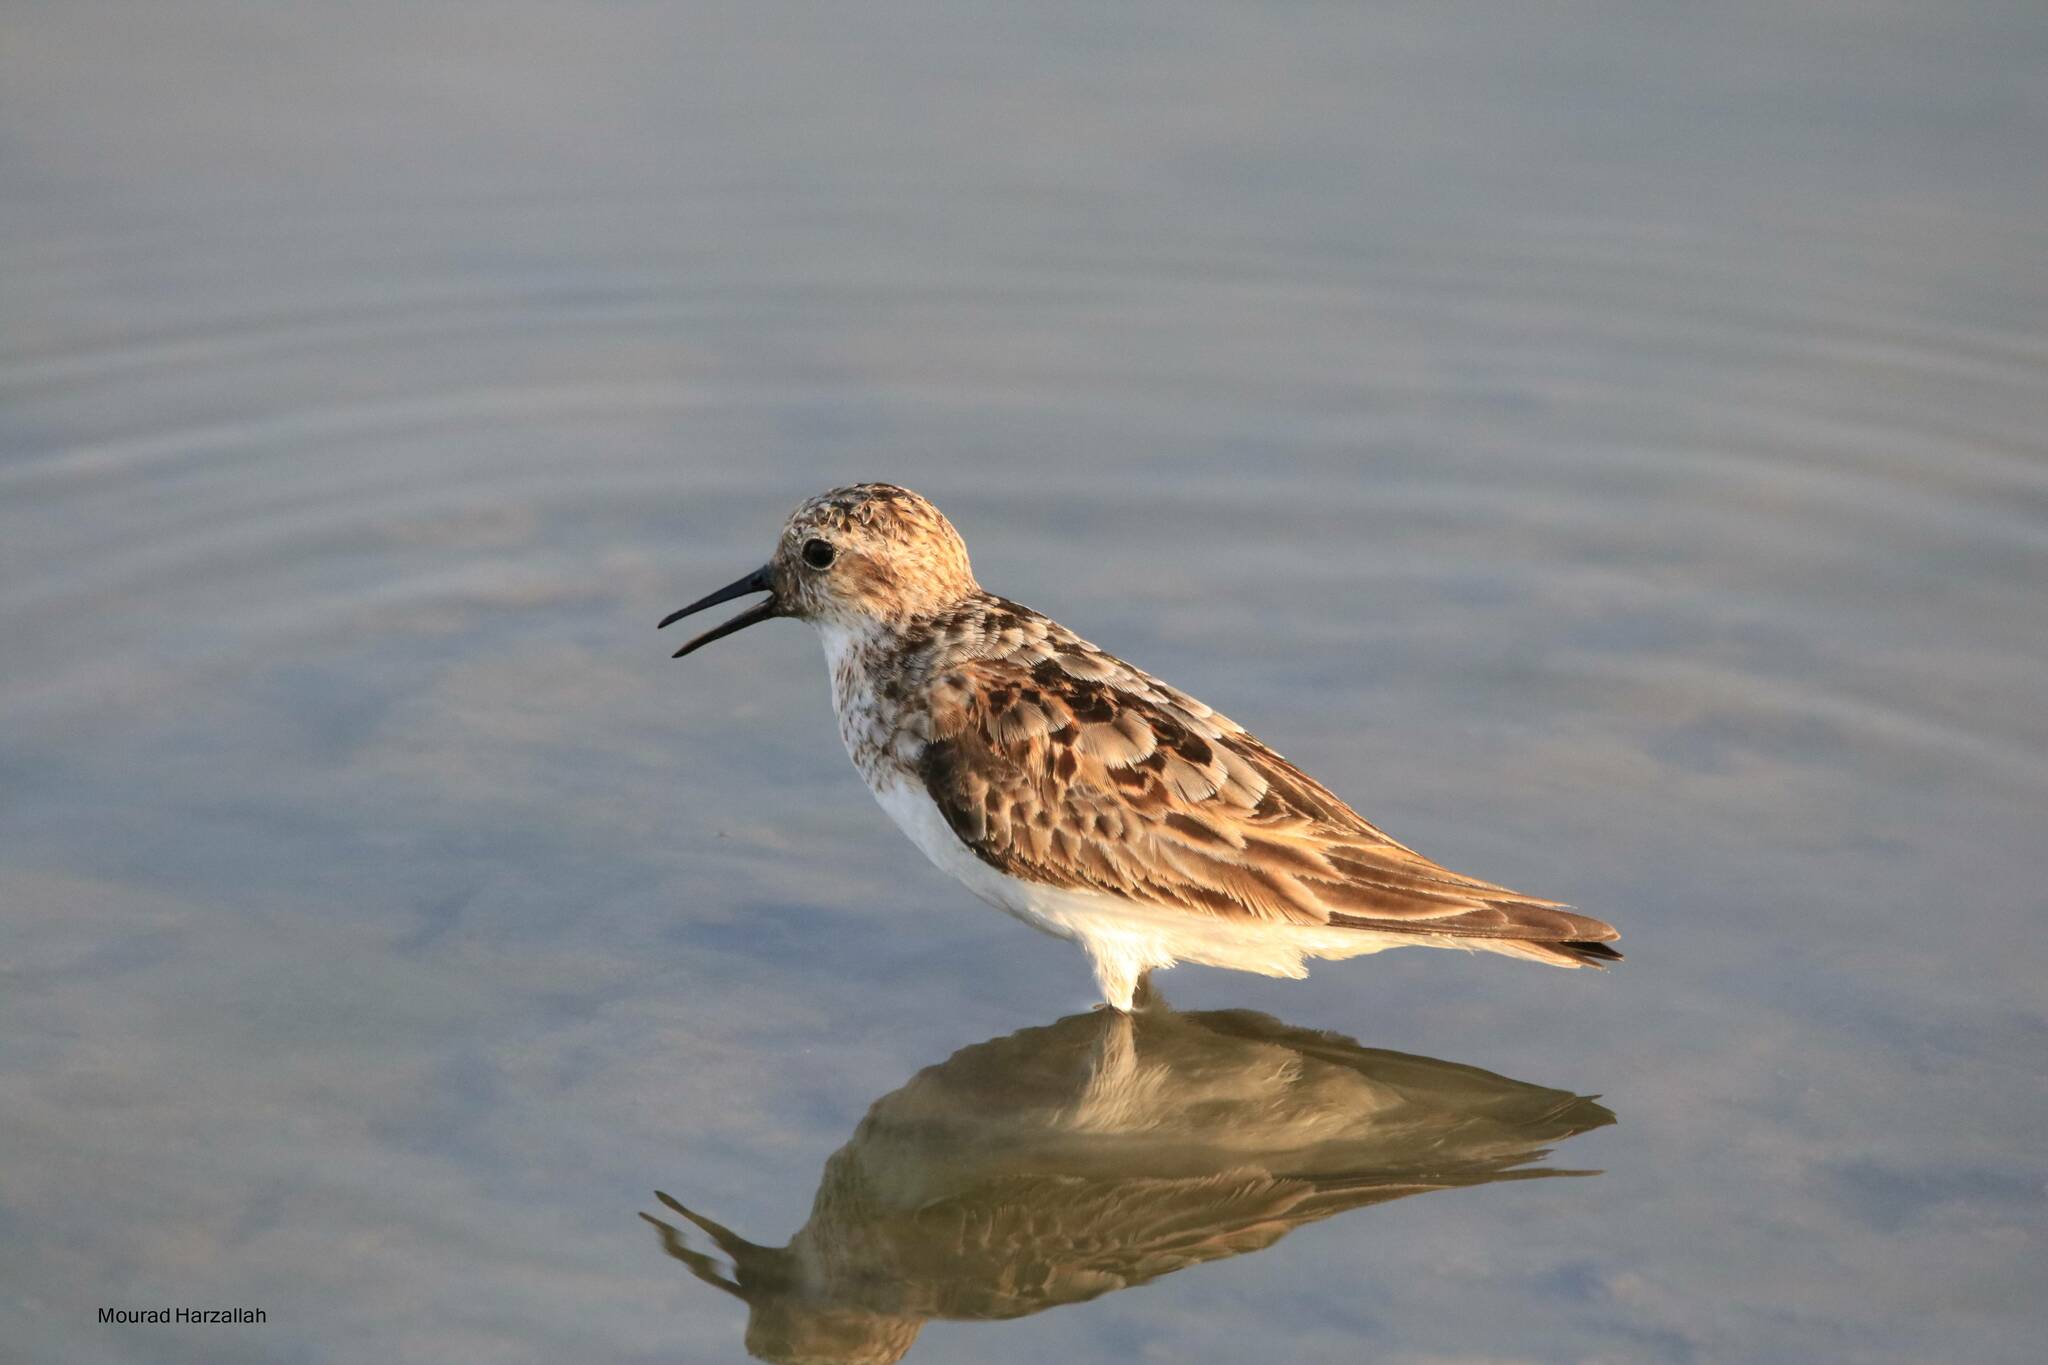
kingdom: Animalia
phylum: Chordata
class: Aves
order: Charadriiformes
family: Scolopacidae
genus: Calidris
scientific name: Calidris minuta
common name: Little stint
